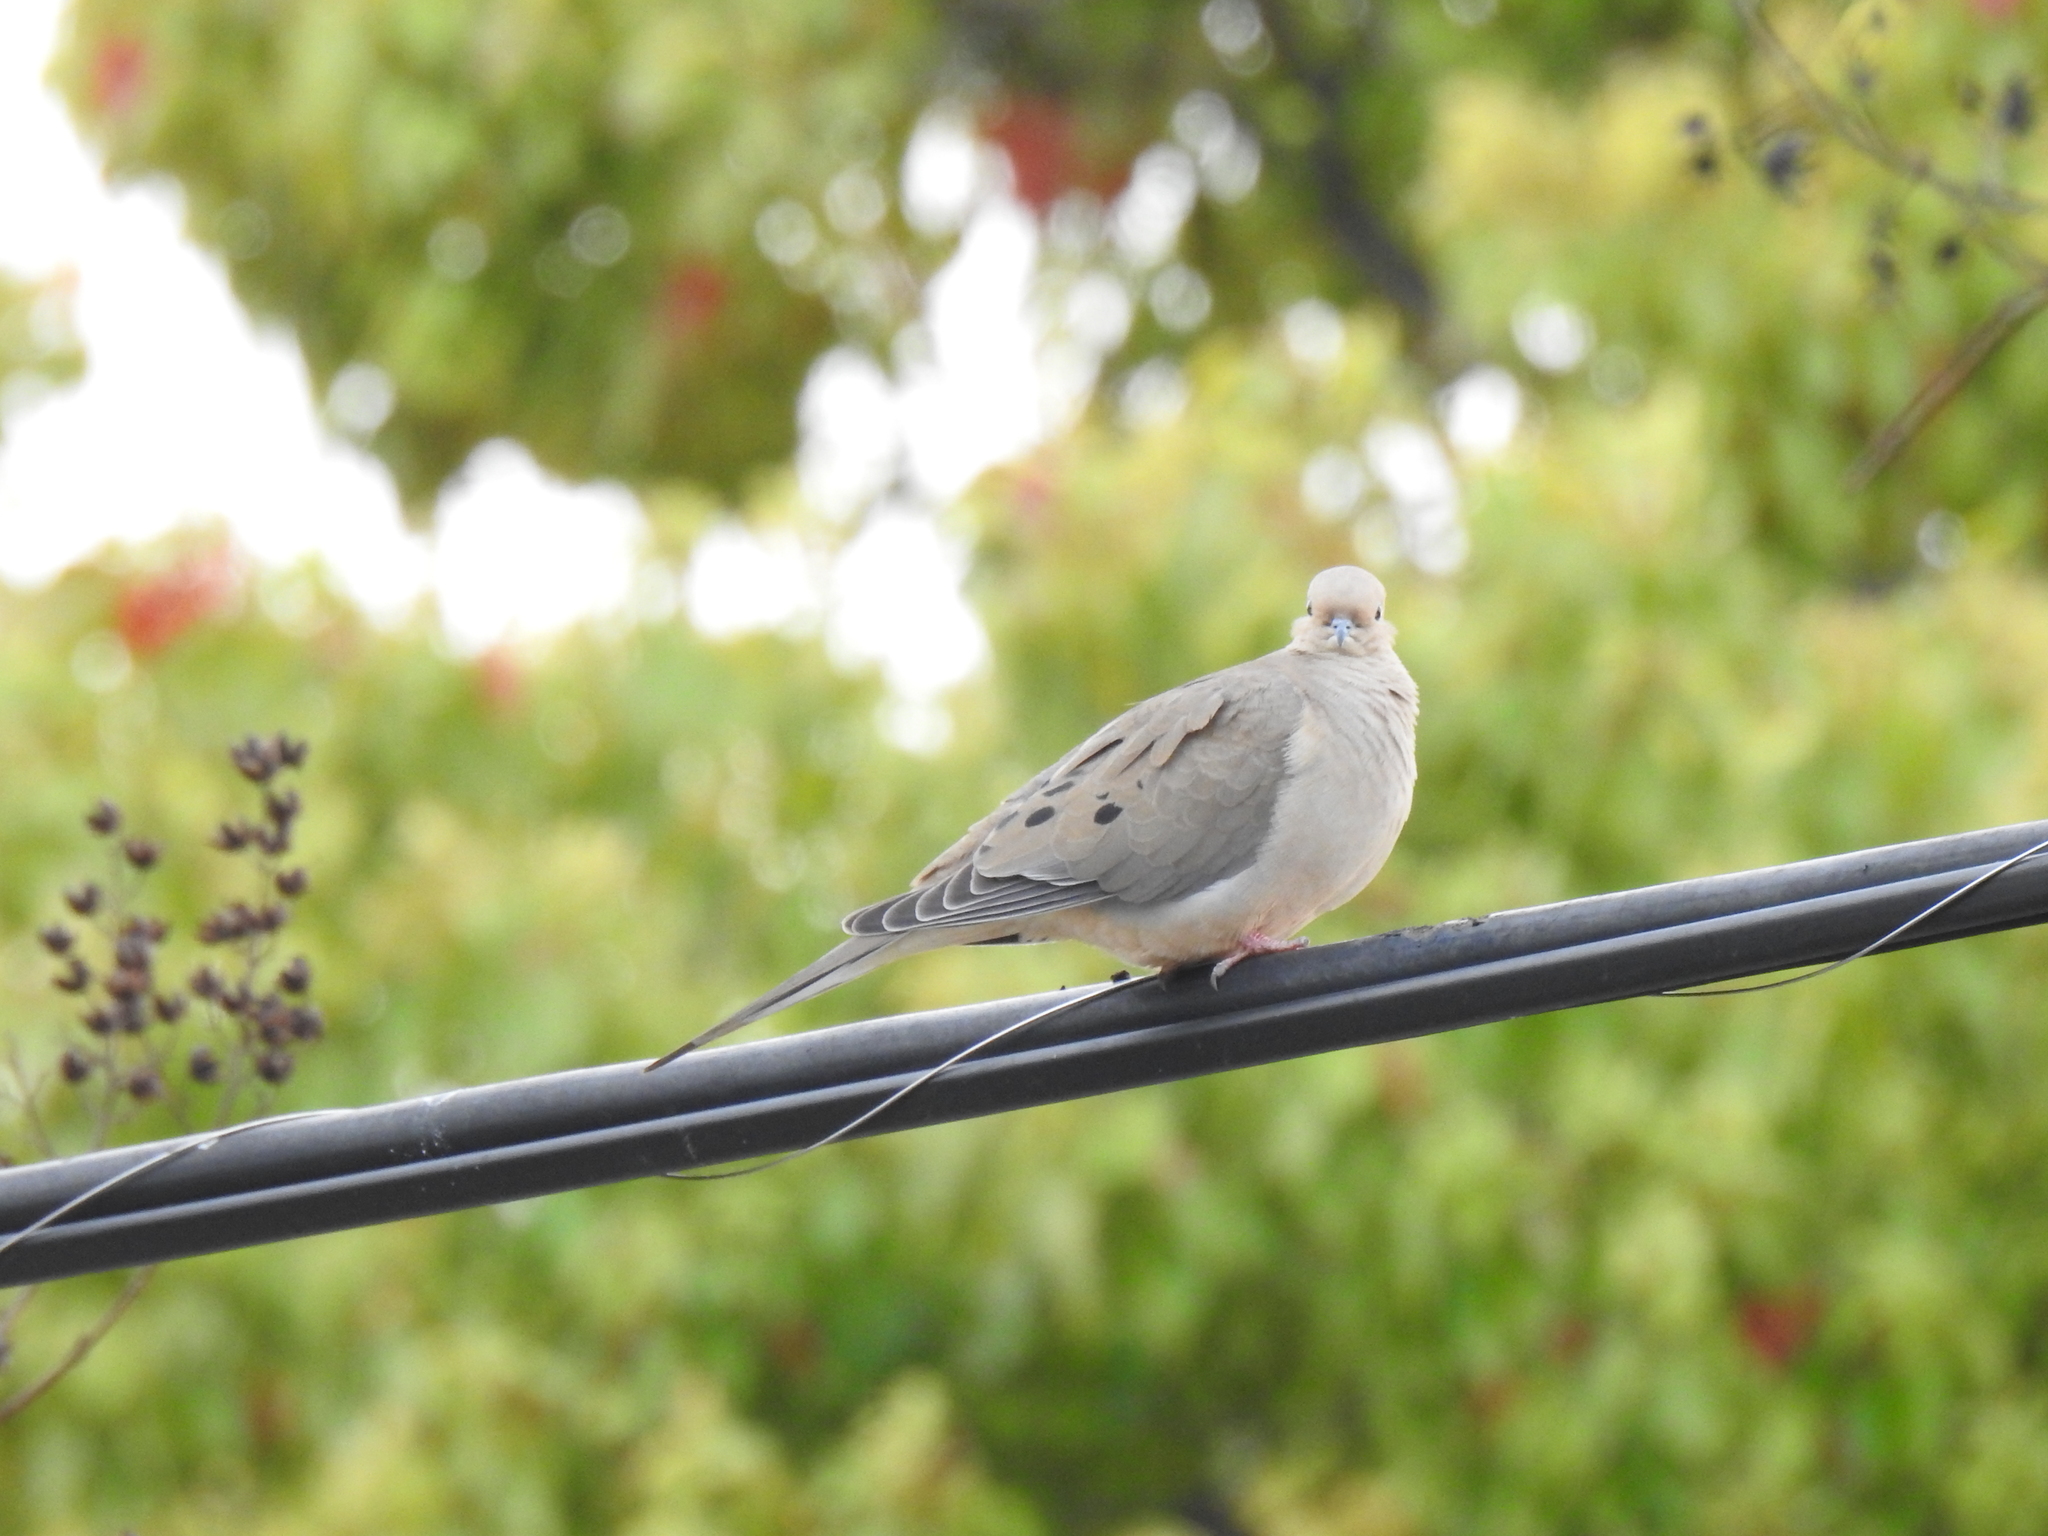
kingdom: Animalia
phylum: Chordata
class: Aves
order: Columbiformes
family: Columbidae
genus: Zenaida
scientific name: Zenaida macroura
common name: Mourning dove
